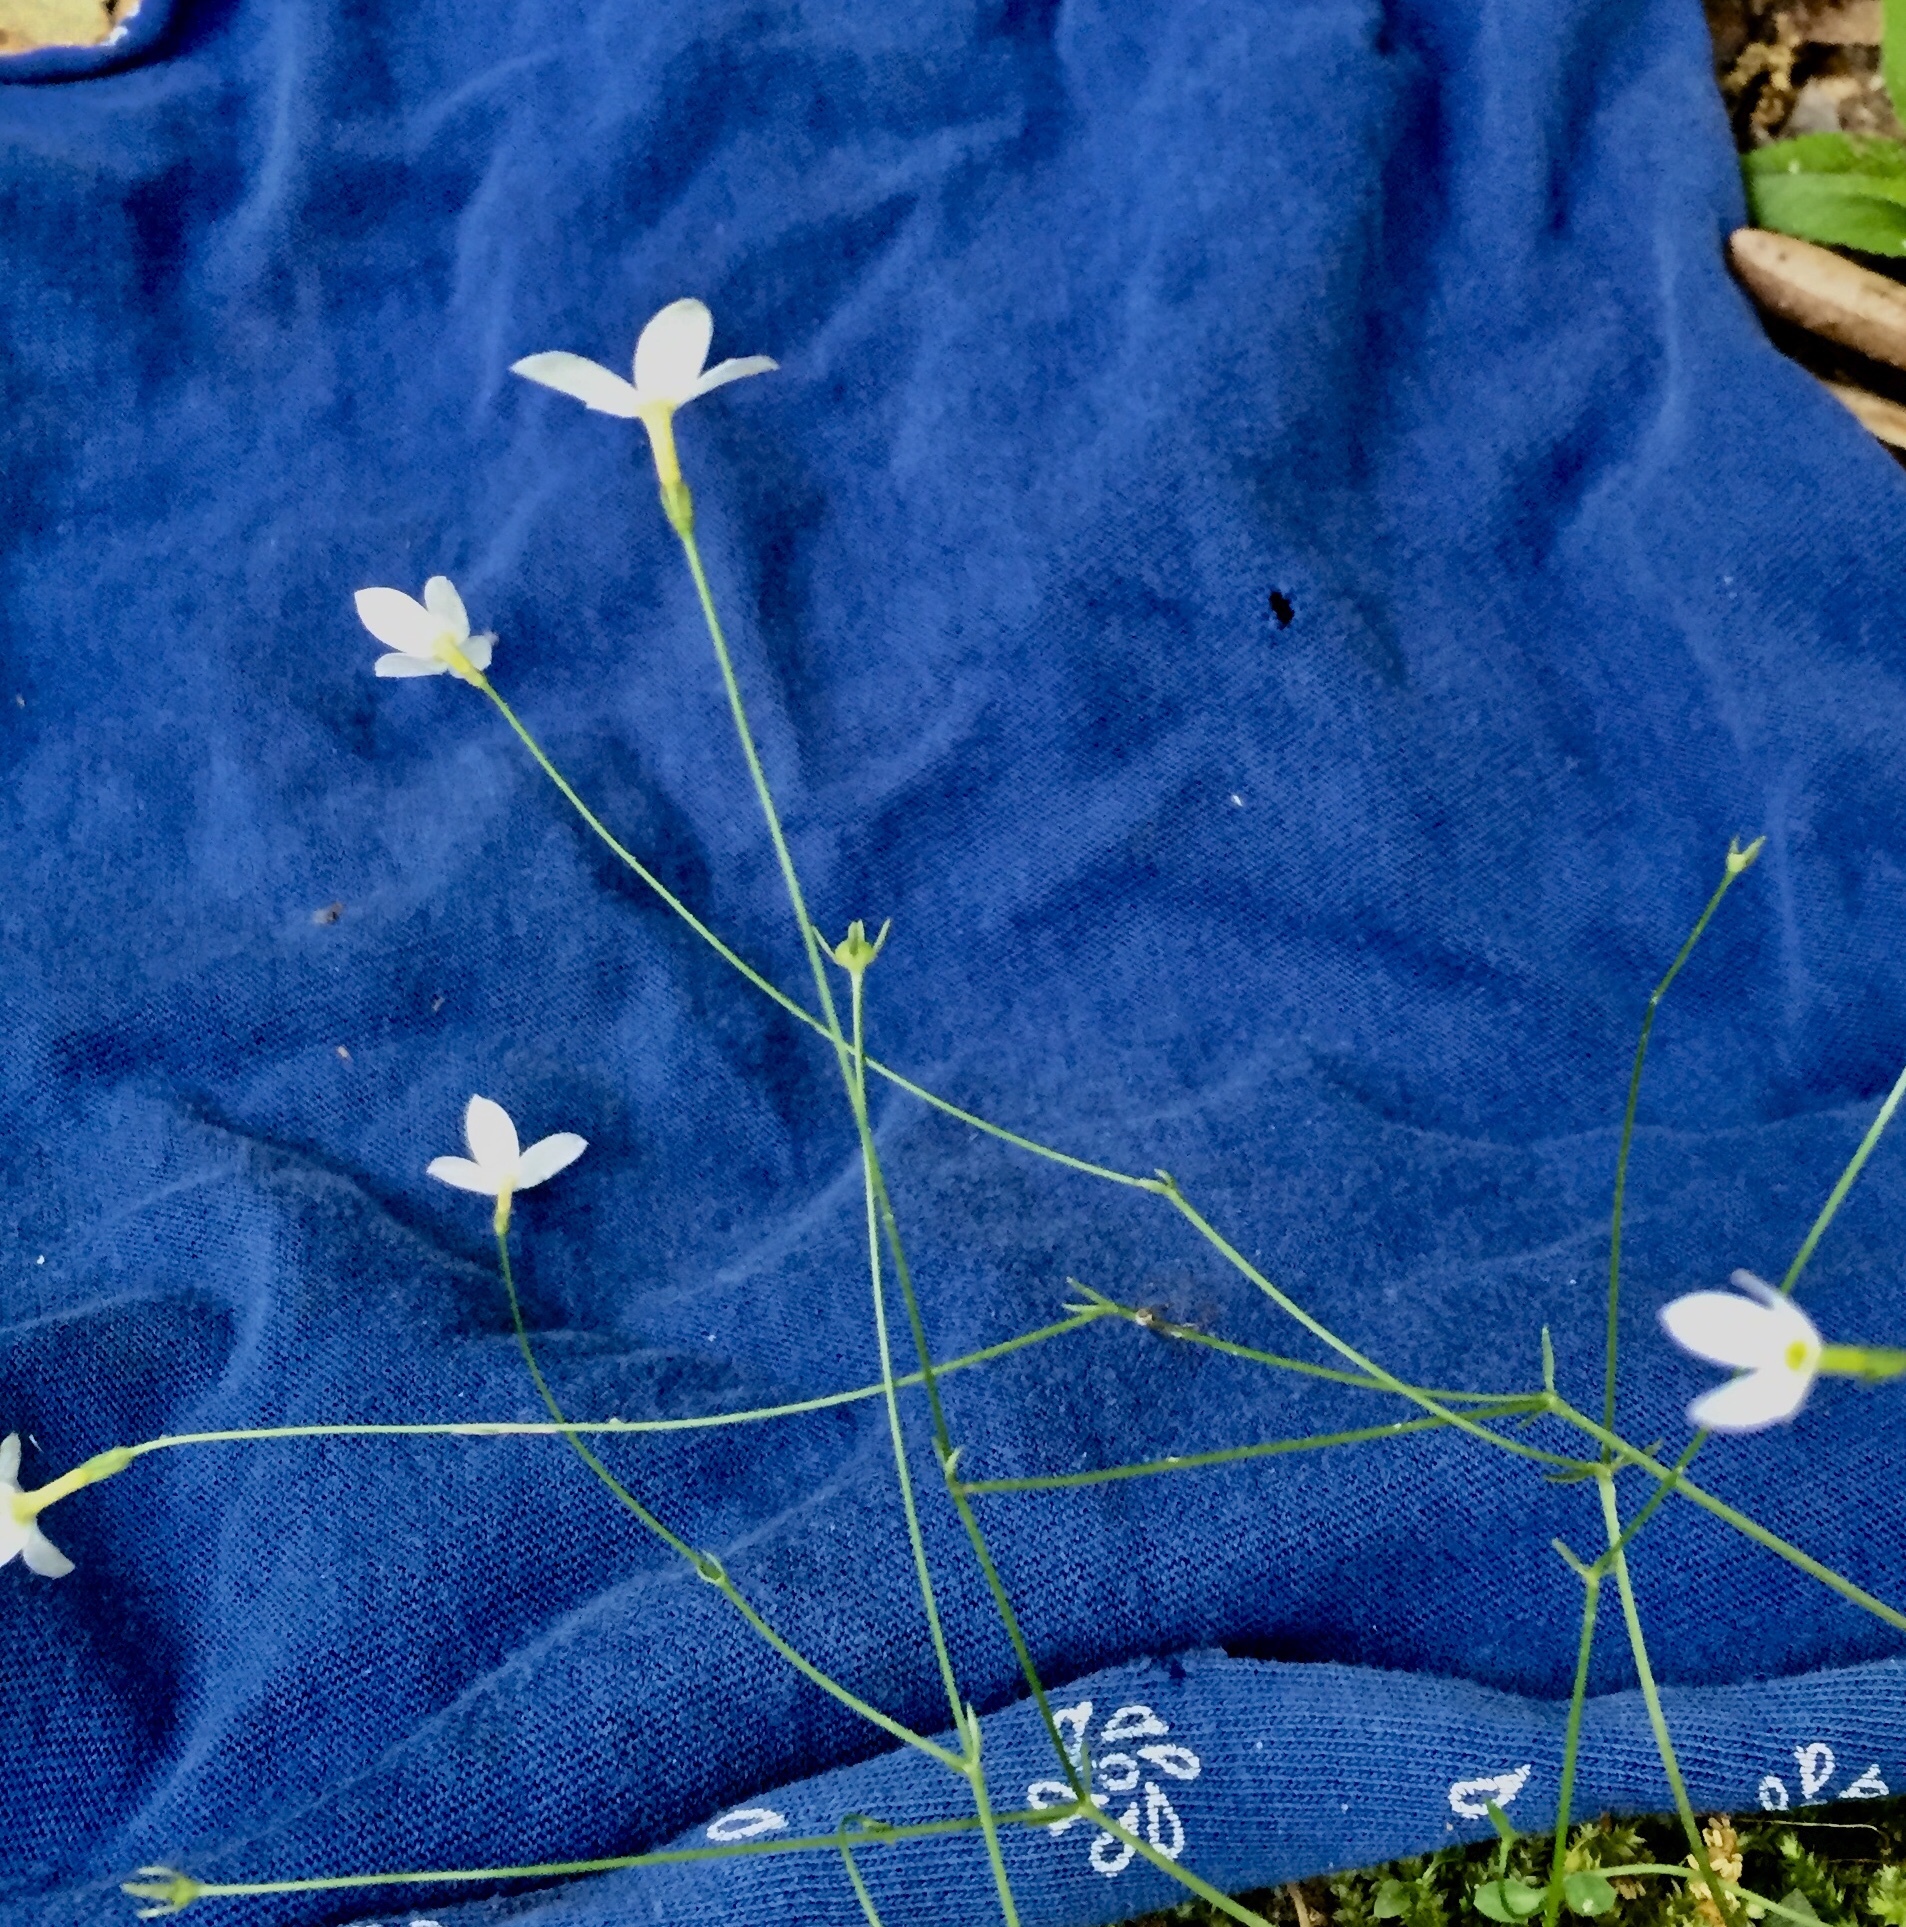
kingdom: Plantae
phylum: Tracheophyta
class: Magnoliopsida
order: Gentianales
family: Rubiaceae
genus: Houstonia
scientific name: Houstonia caerulea
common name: Bluets
